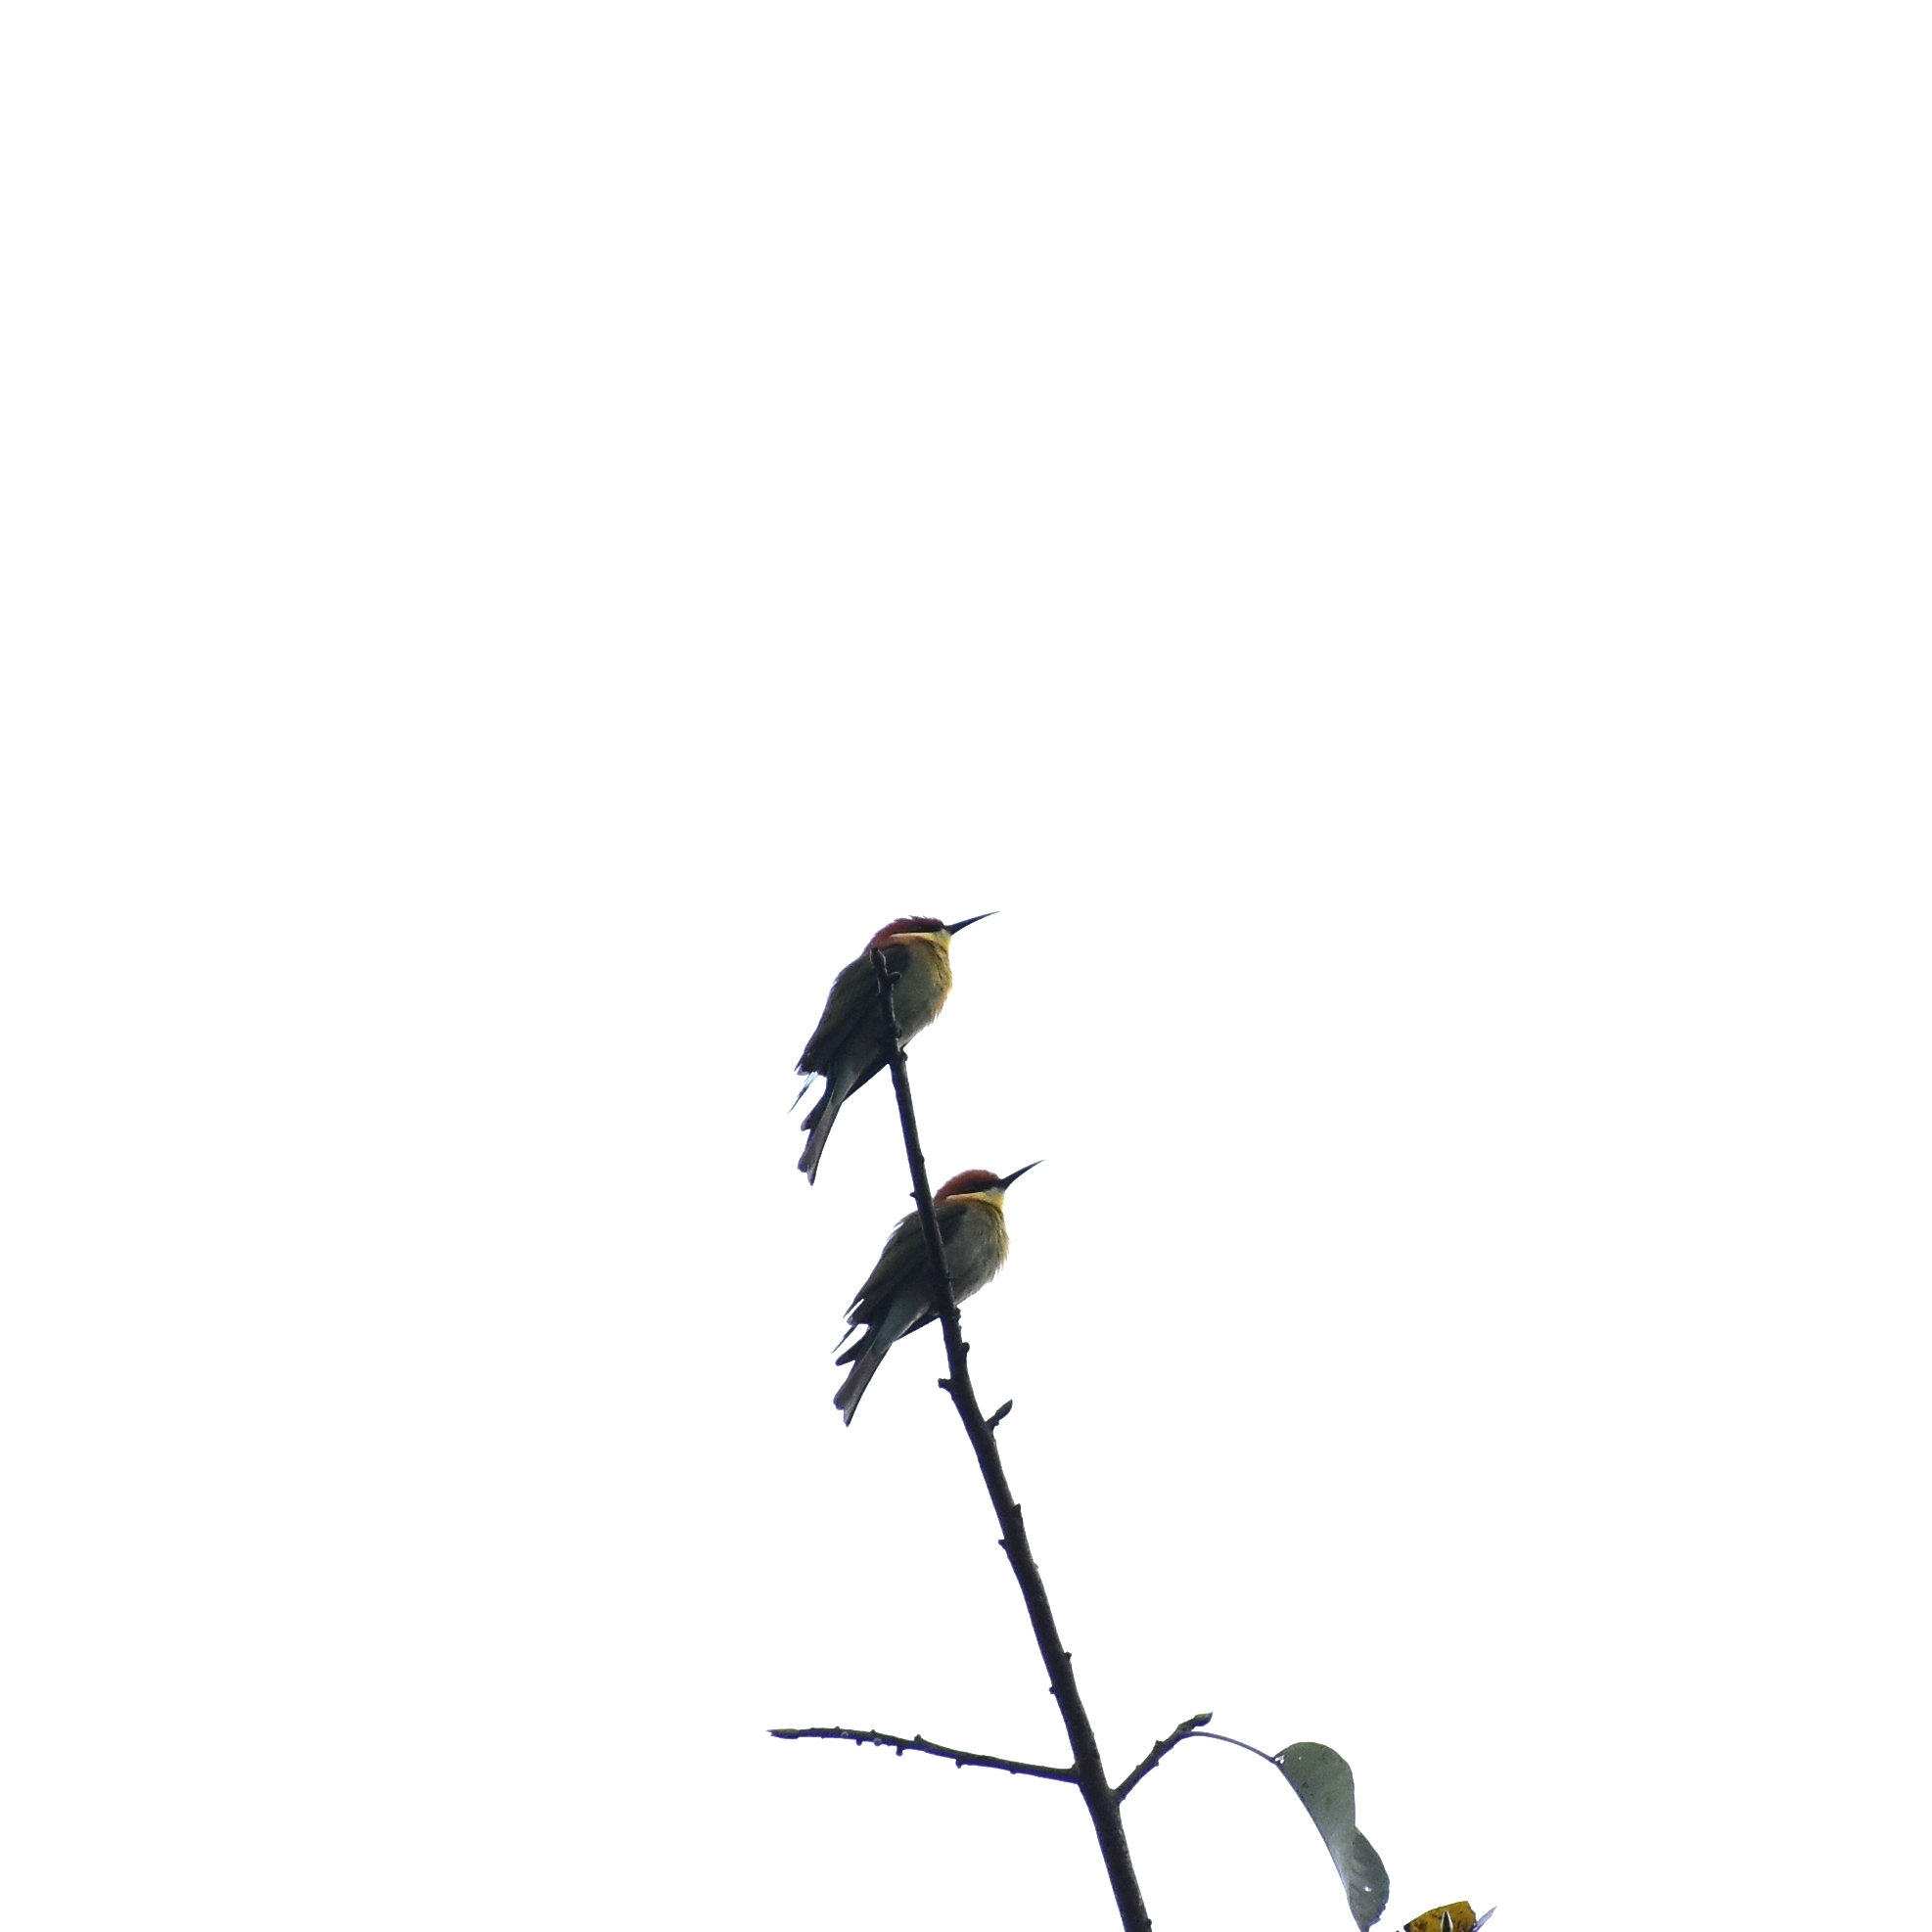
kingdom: Animalia
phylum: Chordata
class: Aves
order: Coraciiformes
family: Meropidae
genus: Merops
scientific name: Merops leschenaulti
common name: Chestnut-headed bee-eater
